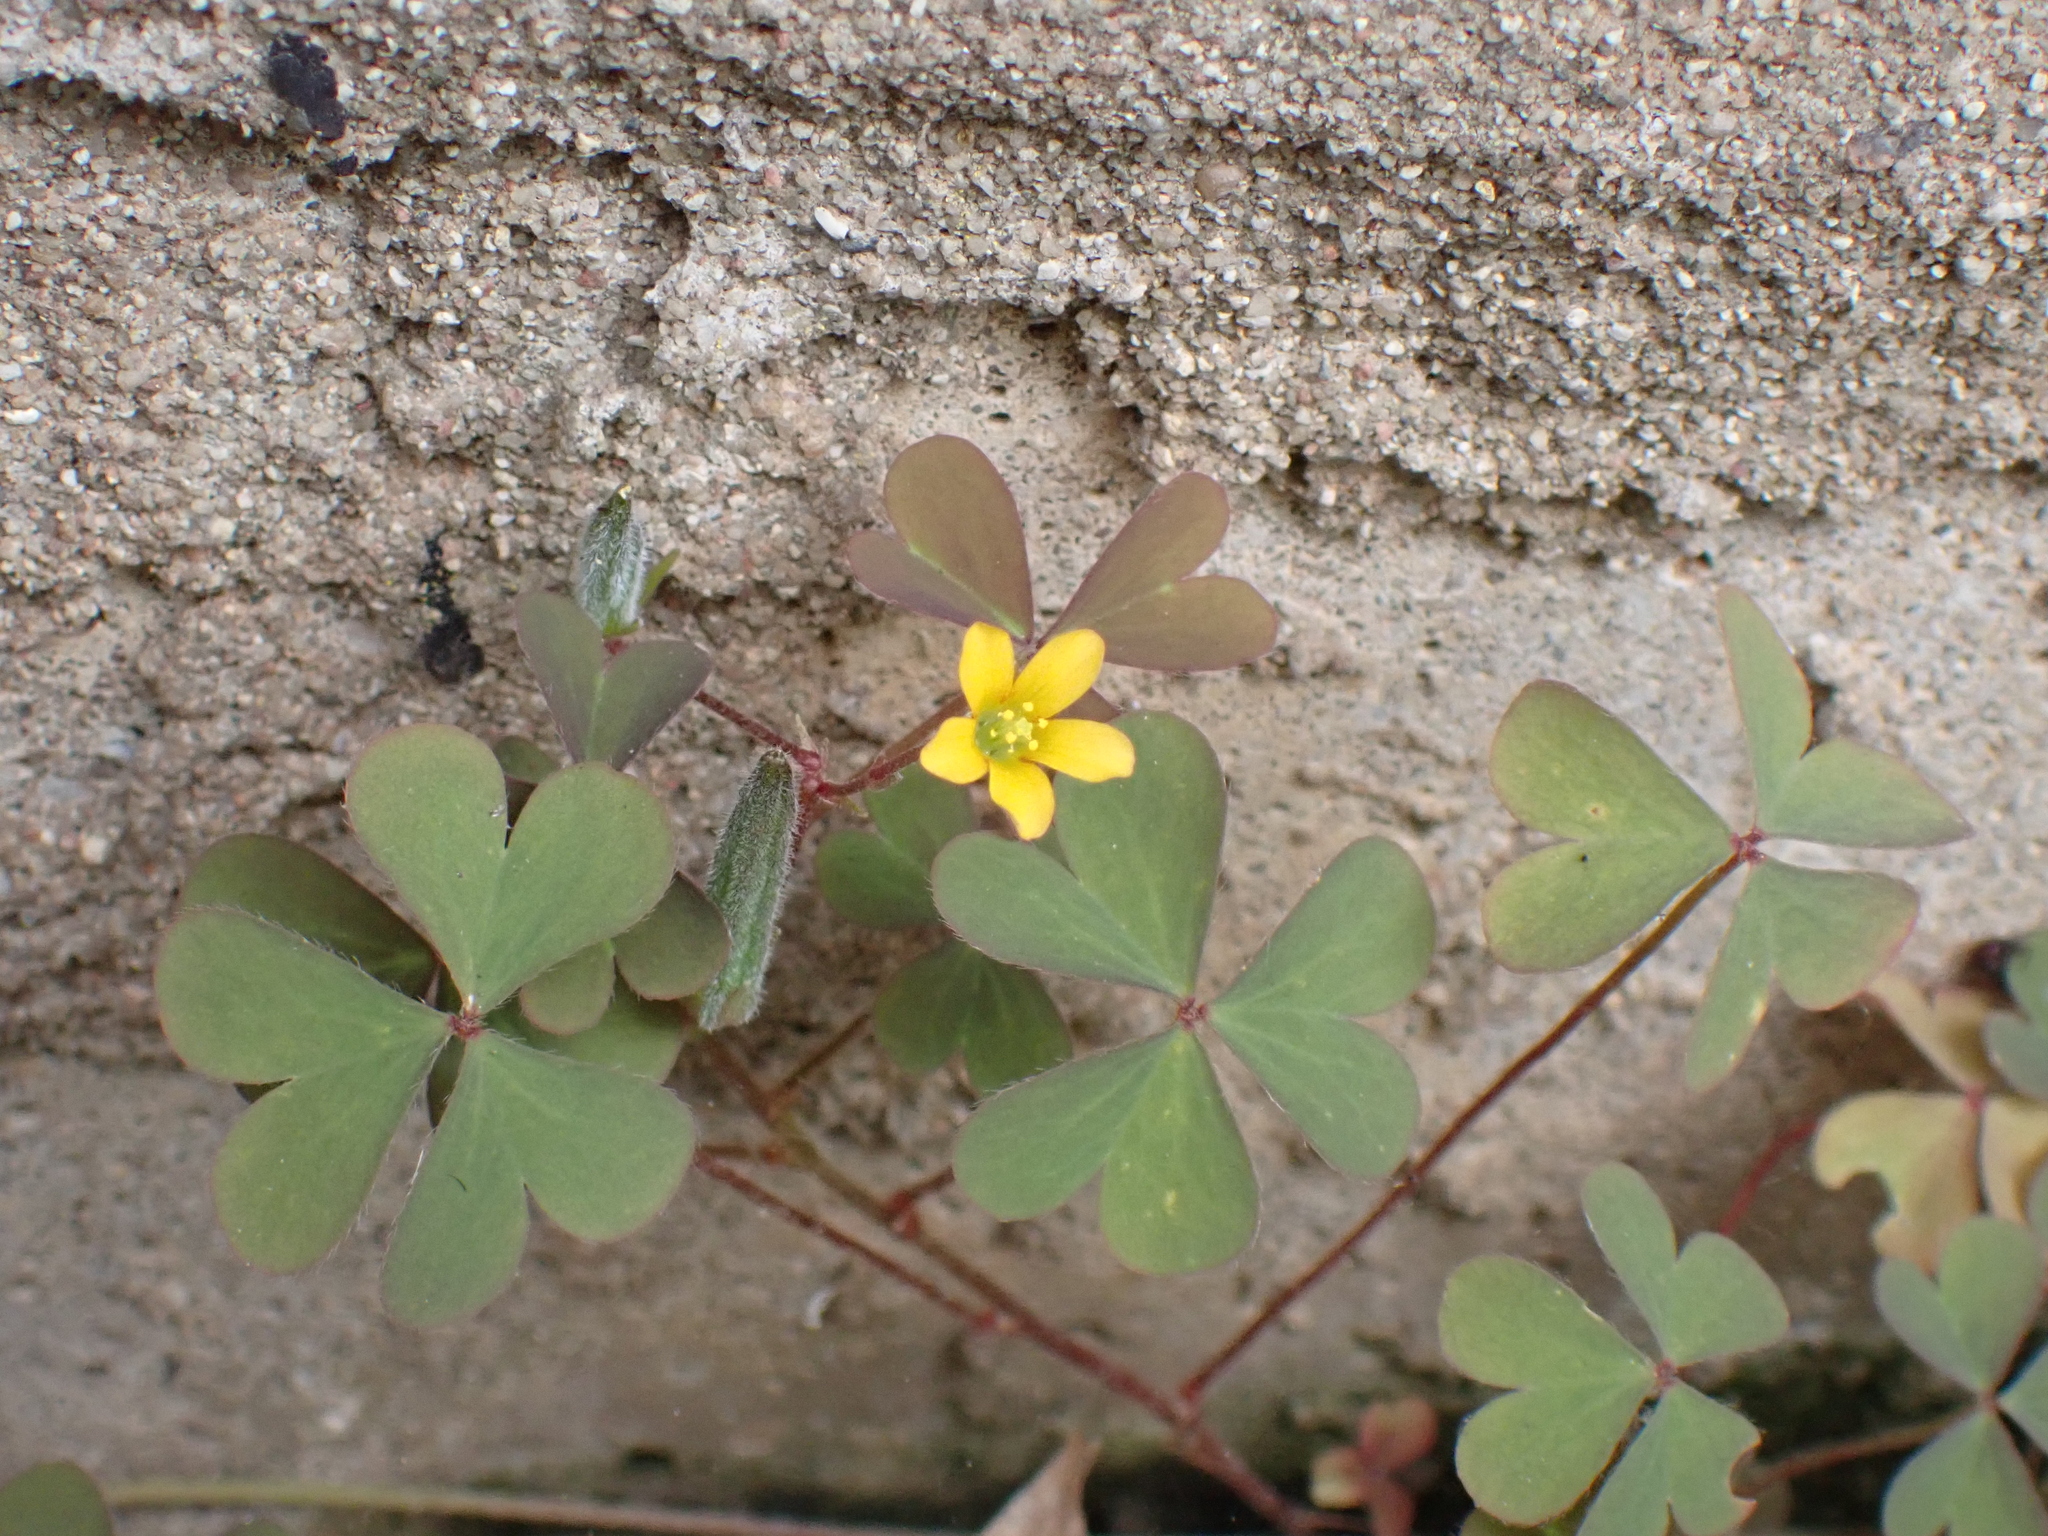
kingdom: Plantae
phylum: Tracheophyta
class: Magnoliopsida
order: Oxalidales
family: Oxalidaceae
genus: Oxalis
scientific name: Oxalis corniculata
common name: Procumbent yellow-sorrel
